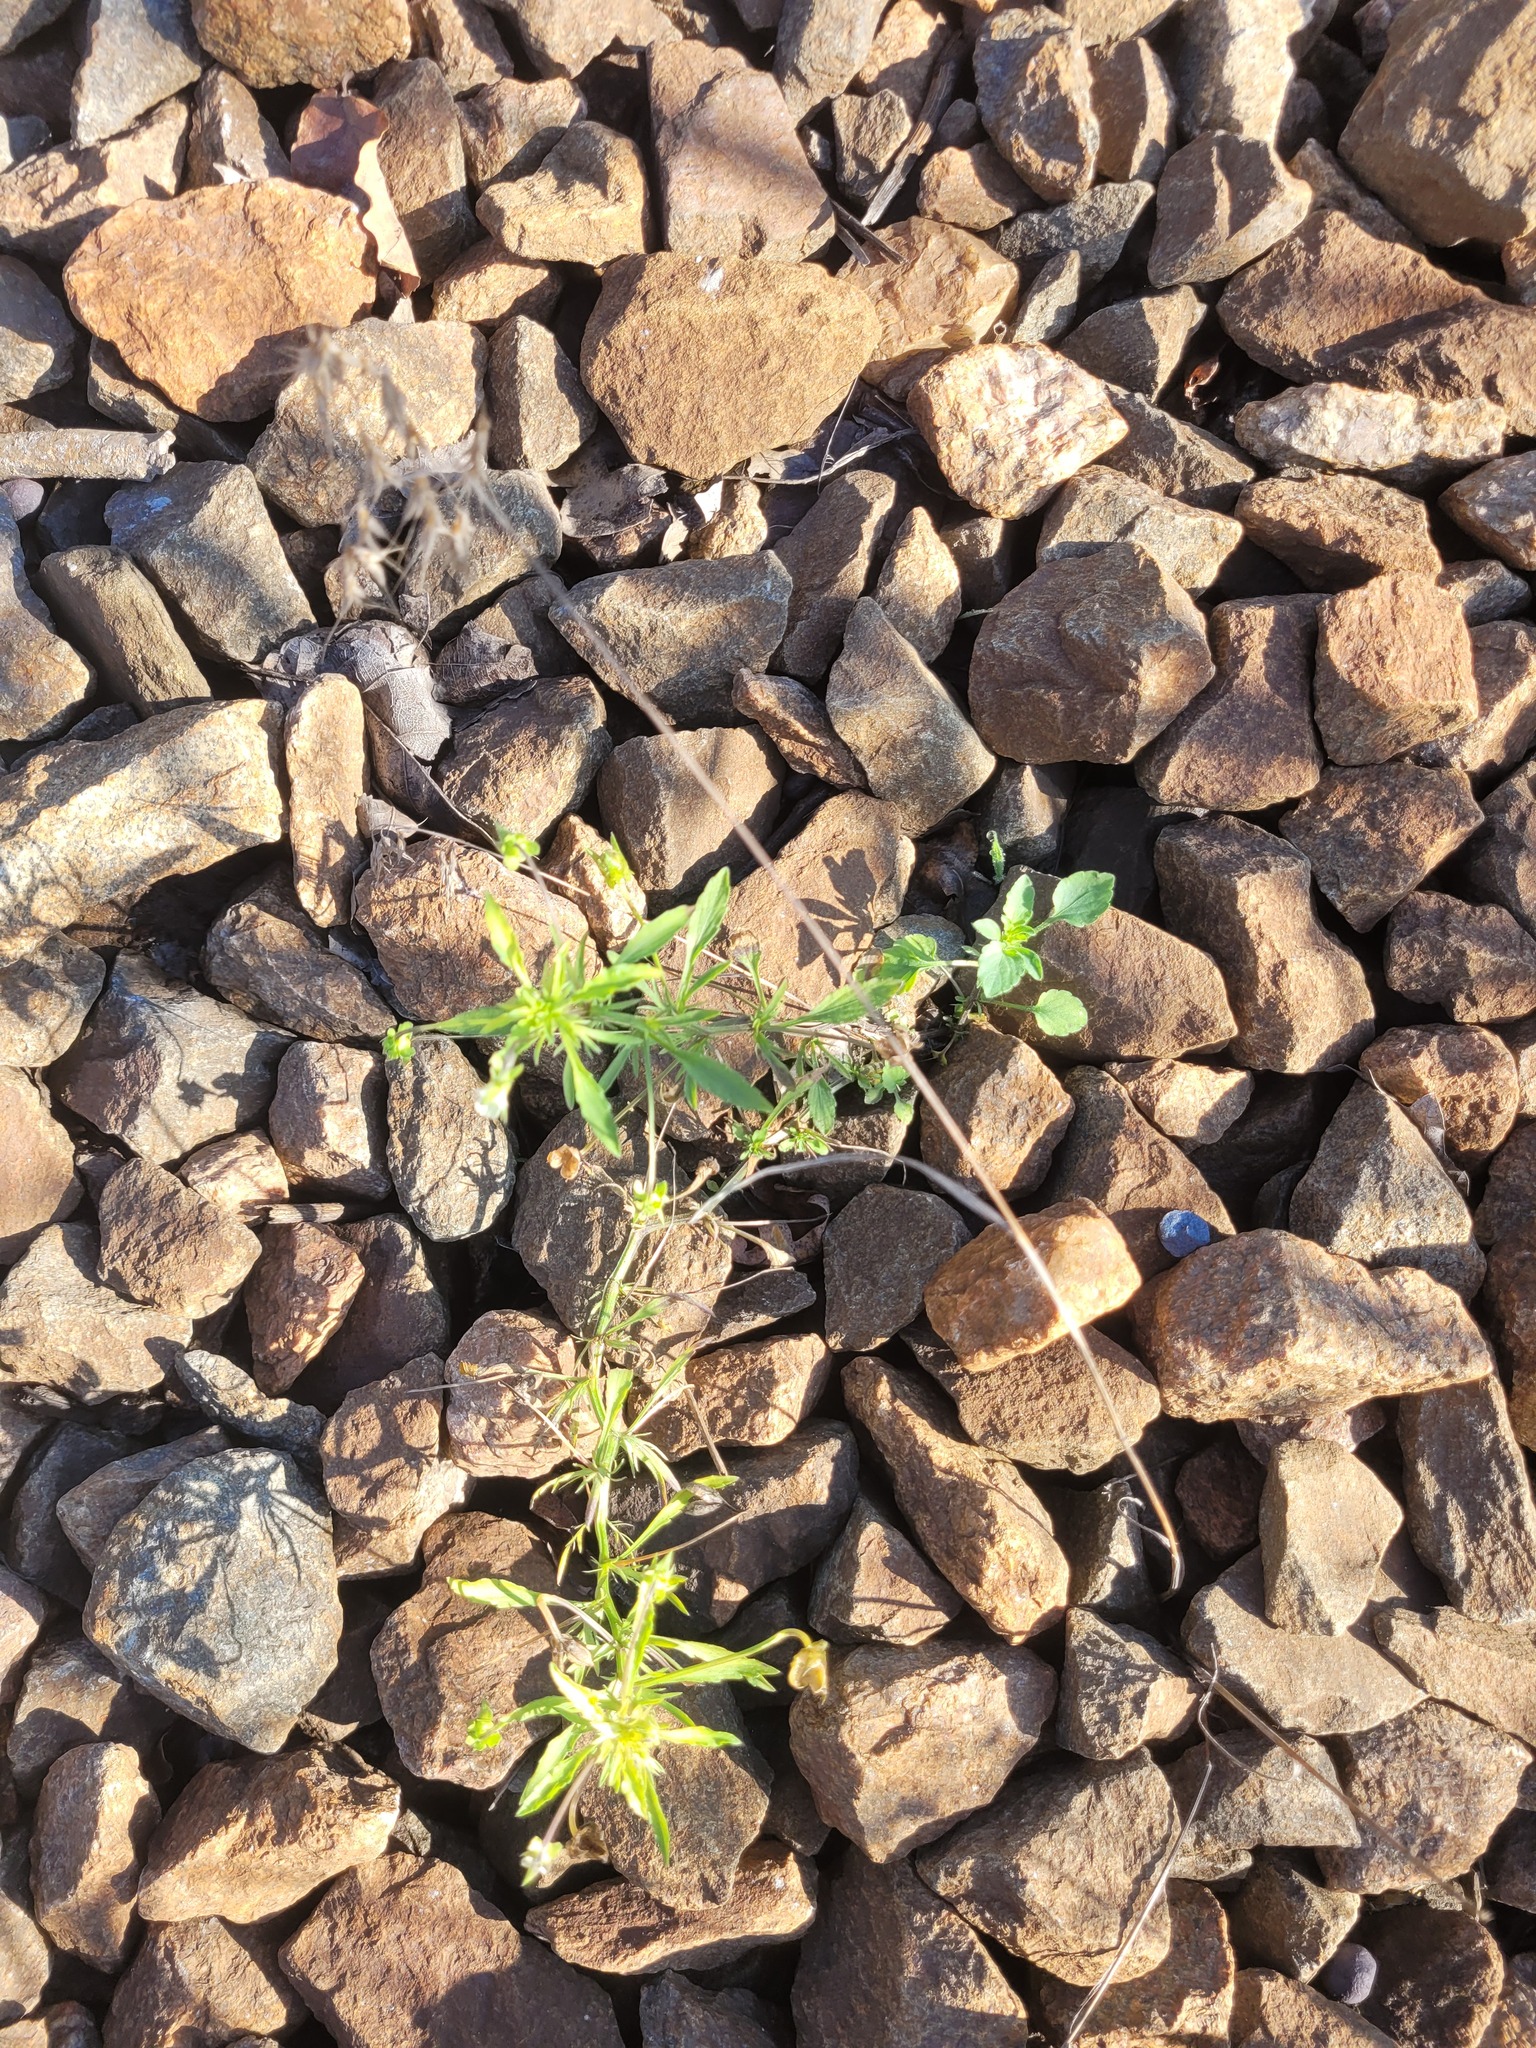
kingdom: Plantae
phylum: Tracheophyta
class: Magnoliopsida
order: Malpighiales
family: Violaceae
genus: Viola
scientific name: Viola arvensis
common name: Field pansy
